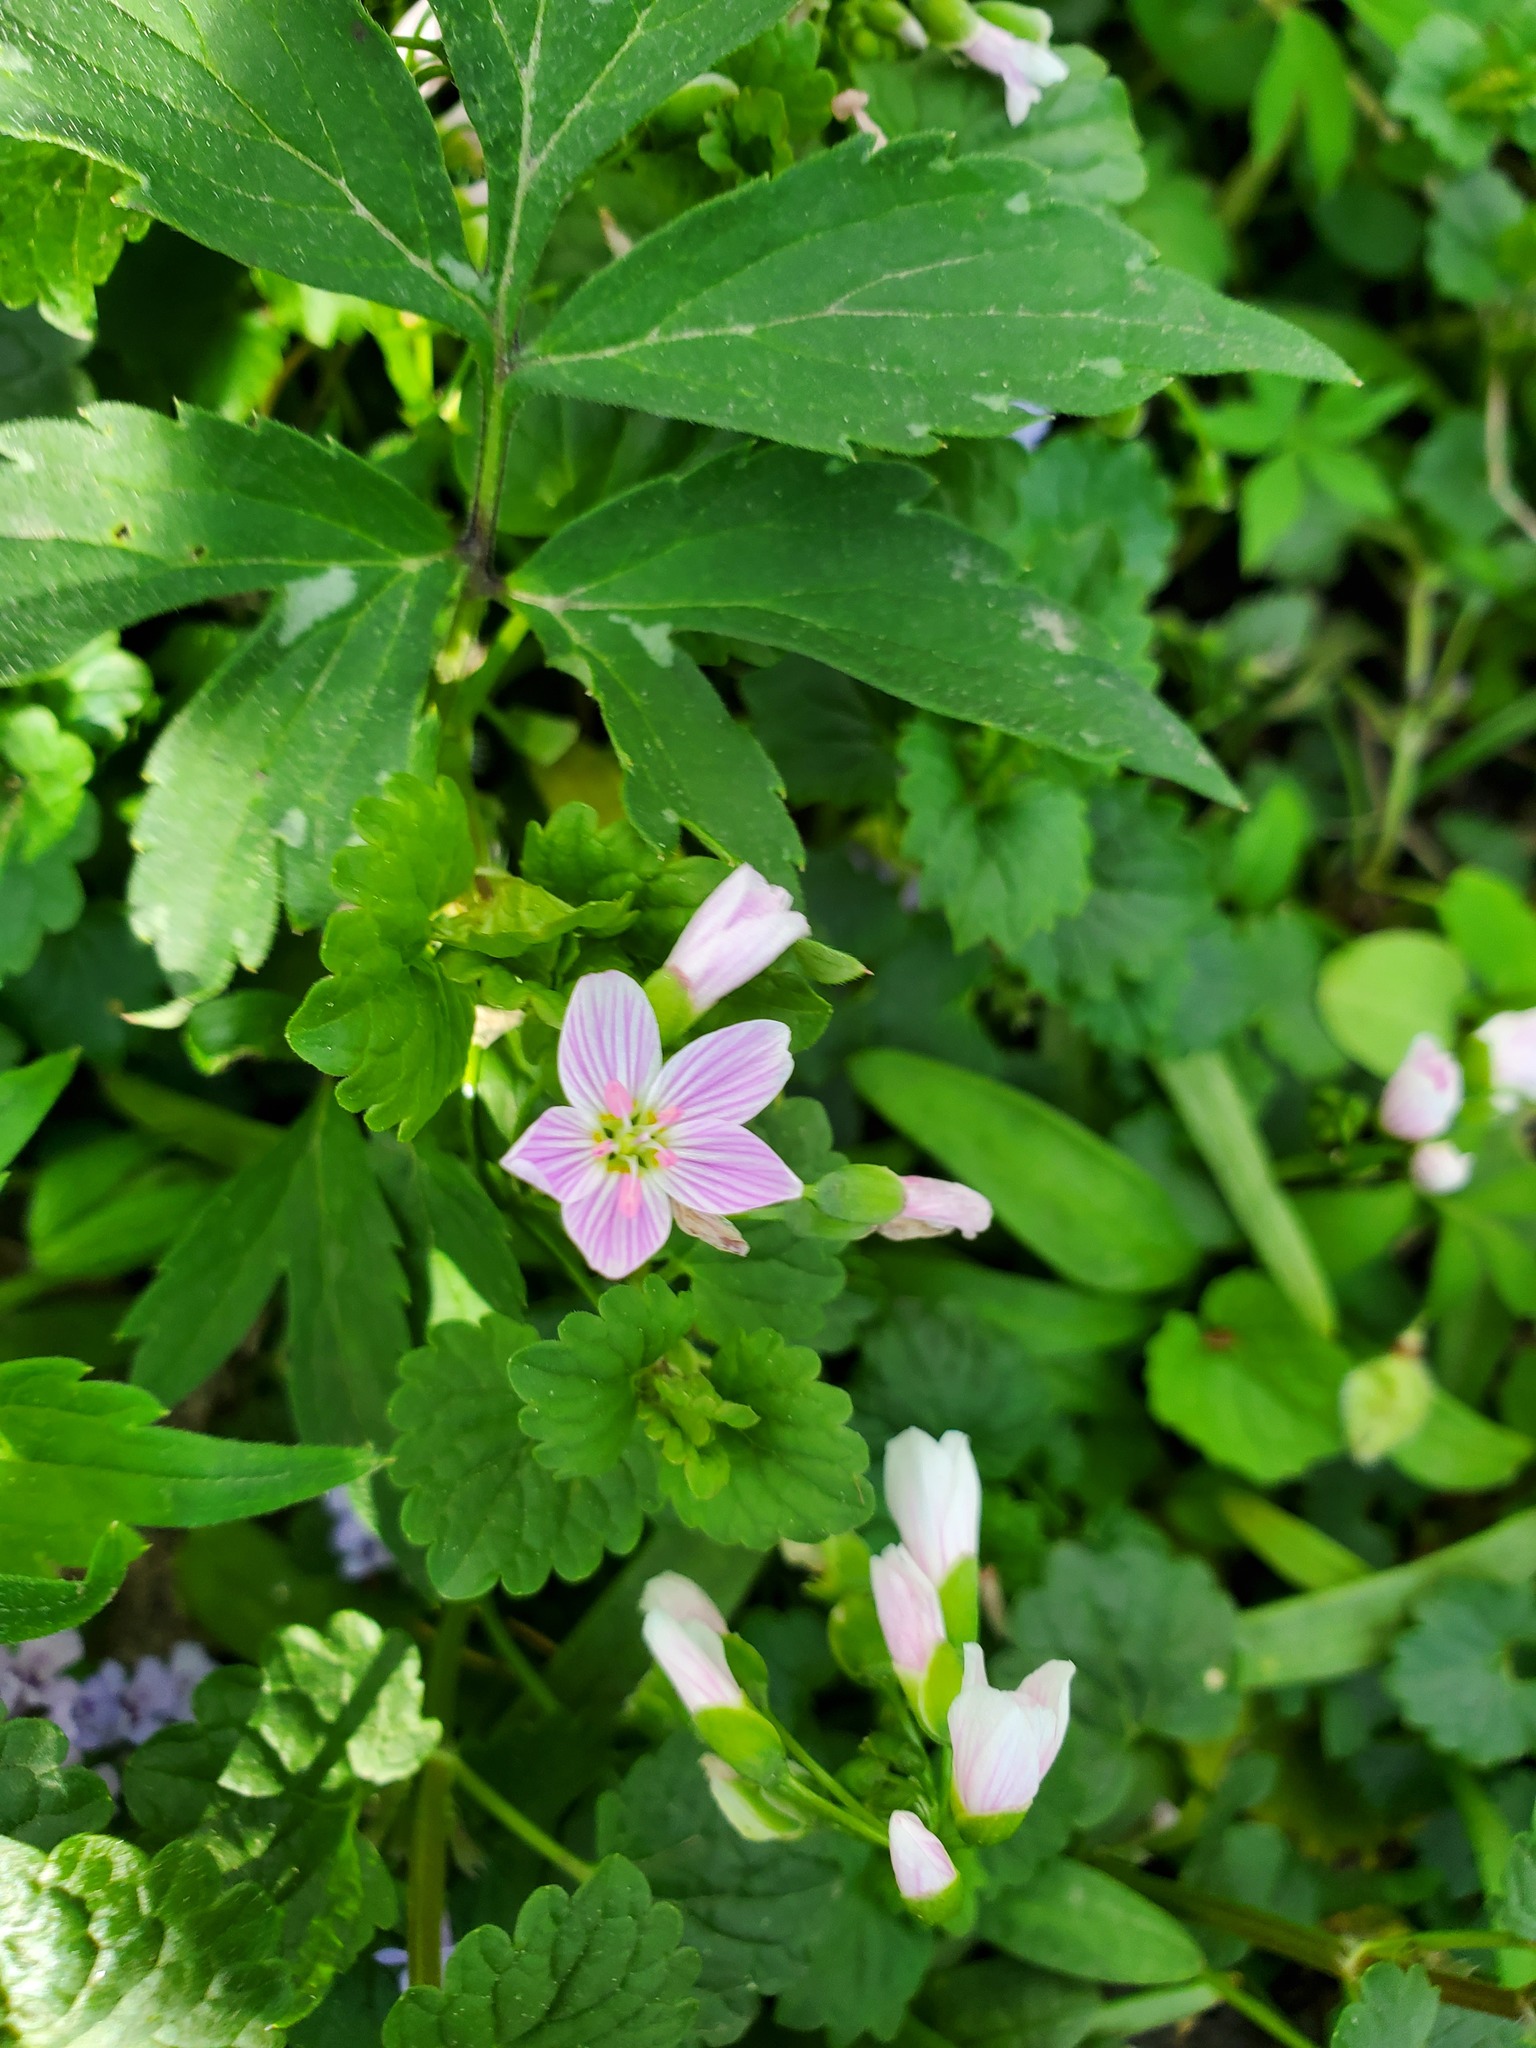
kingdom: Plantae
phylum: Tracheophyta
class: Magnoliopsida
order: Caryophyllales
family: Montiaceae
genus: Claytonia
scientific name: Claytonia virginica
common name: Virginia springbeauty
